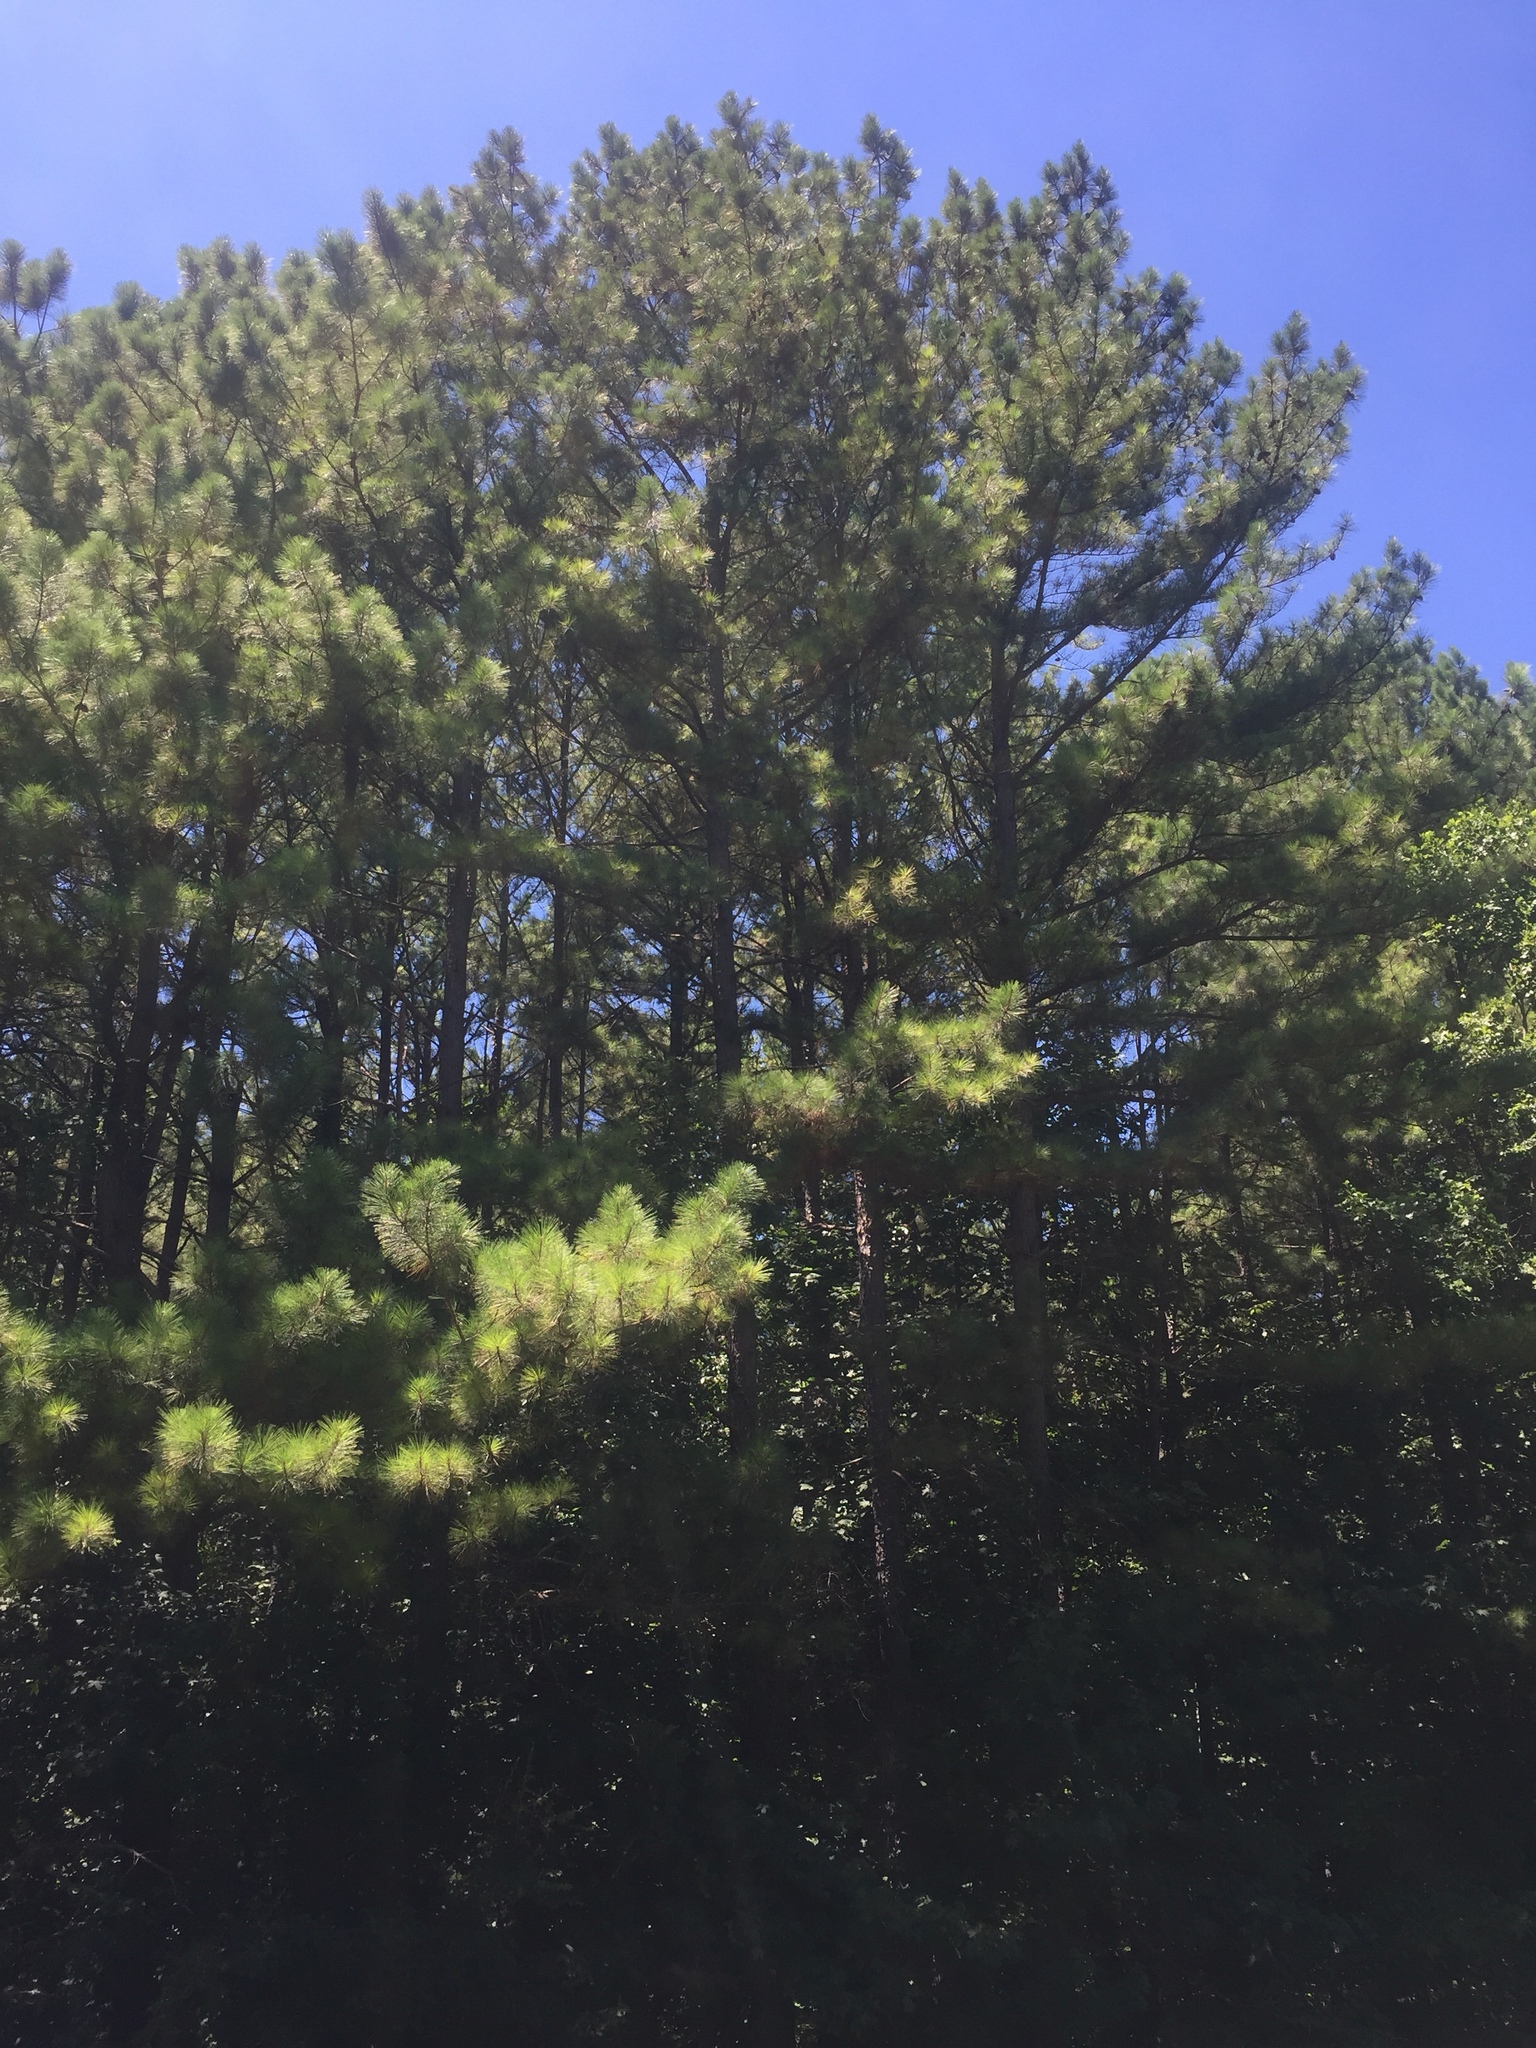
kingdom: Plantae
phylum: Tracheophyta
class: Pinopsida
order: Pinales
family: Pinaceae
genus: Pinus
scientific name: Pinus taeda
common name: Loblolly pine
